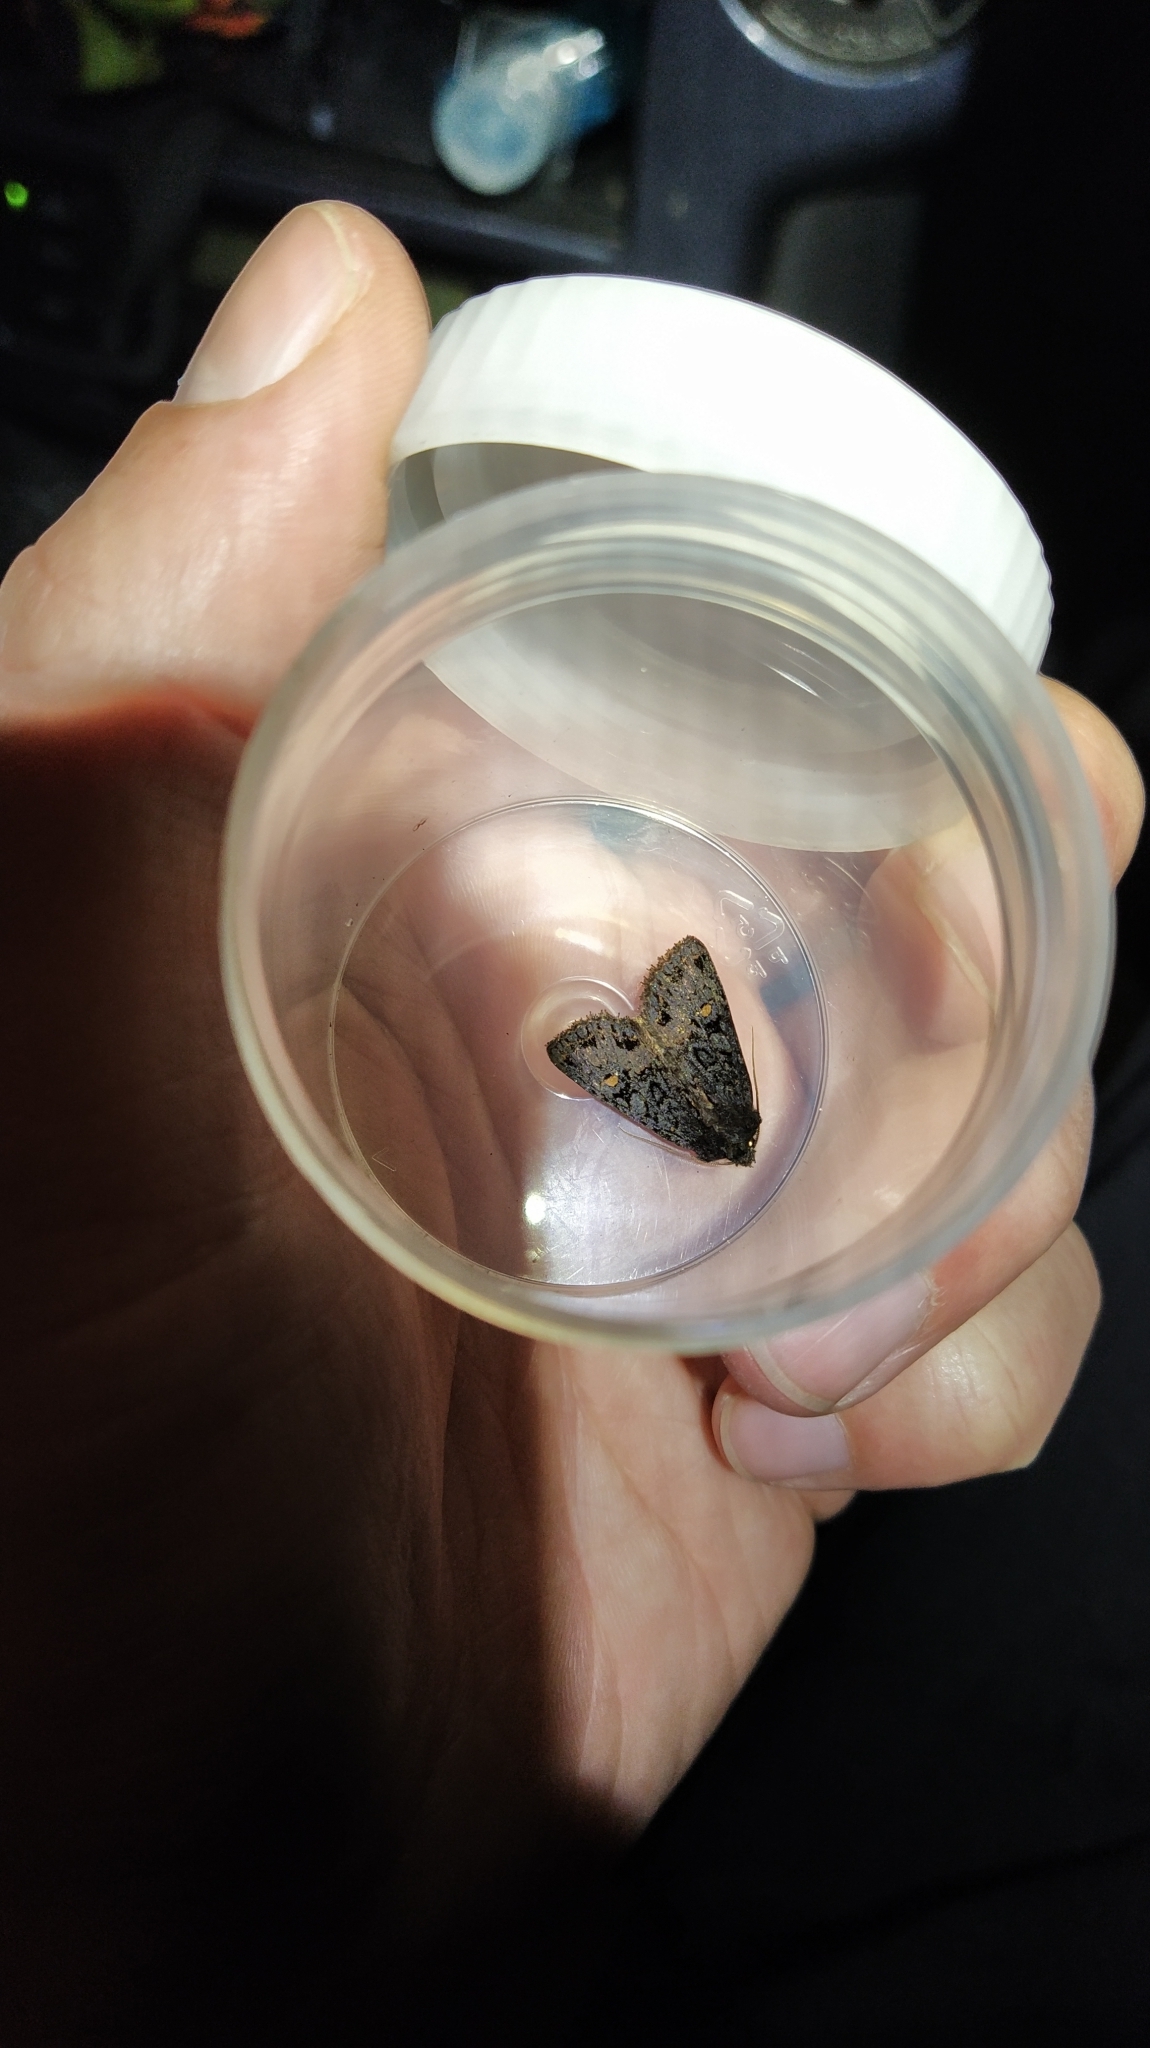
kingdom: Animalia
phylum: Arthropoda
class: Insecta
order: Lepidoptera
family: Noctuidae
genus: Meterana
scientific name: Meterana vitiosa
